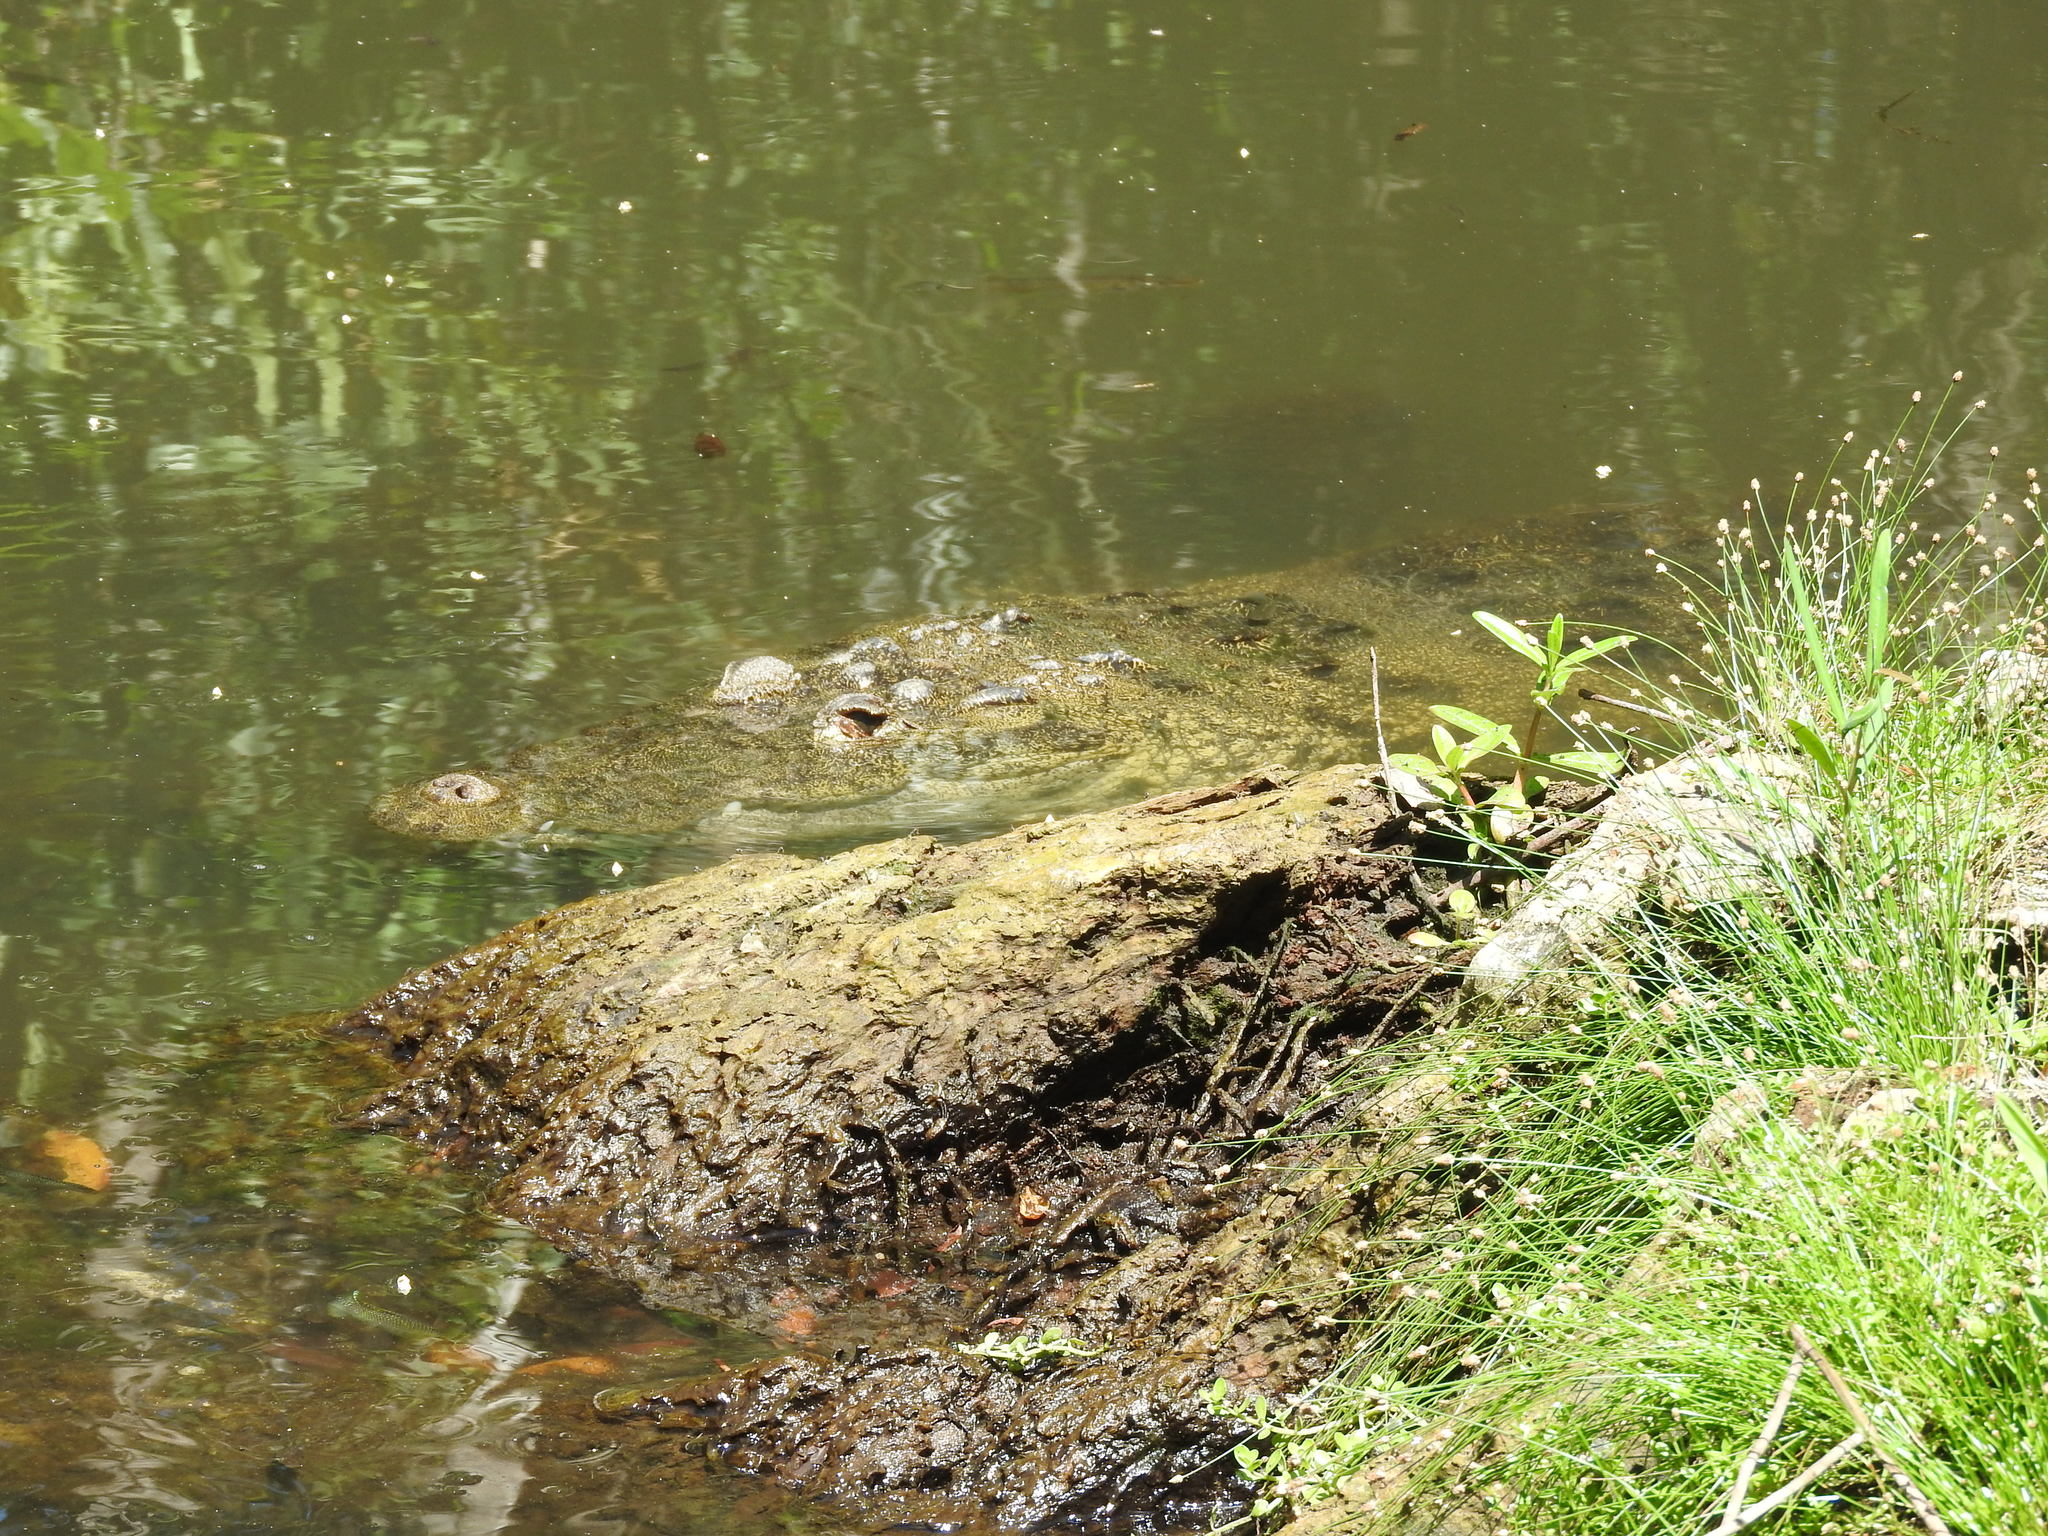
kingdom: Animalia
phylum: Chordata
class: Crocodylia
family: Crocodylidae
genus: Crocodylus
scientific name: Crocodylus moreletii
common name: Morelet's crocodile
